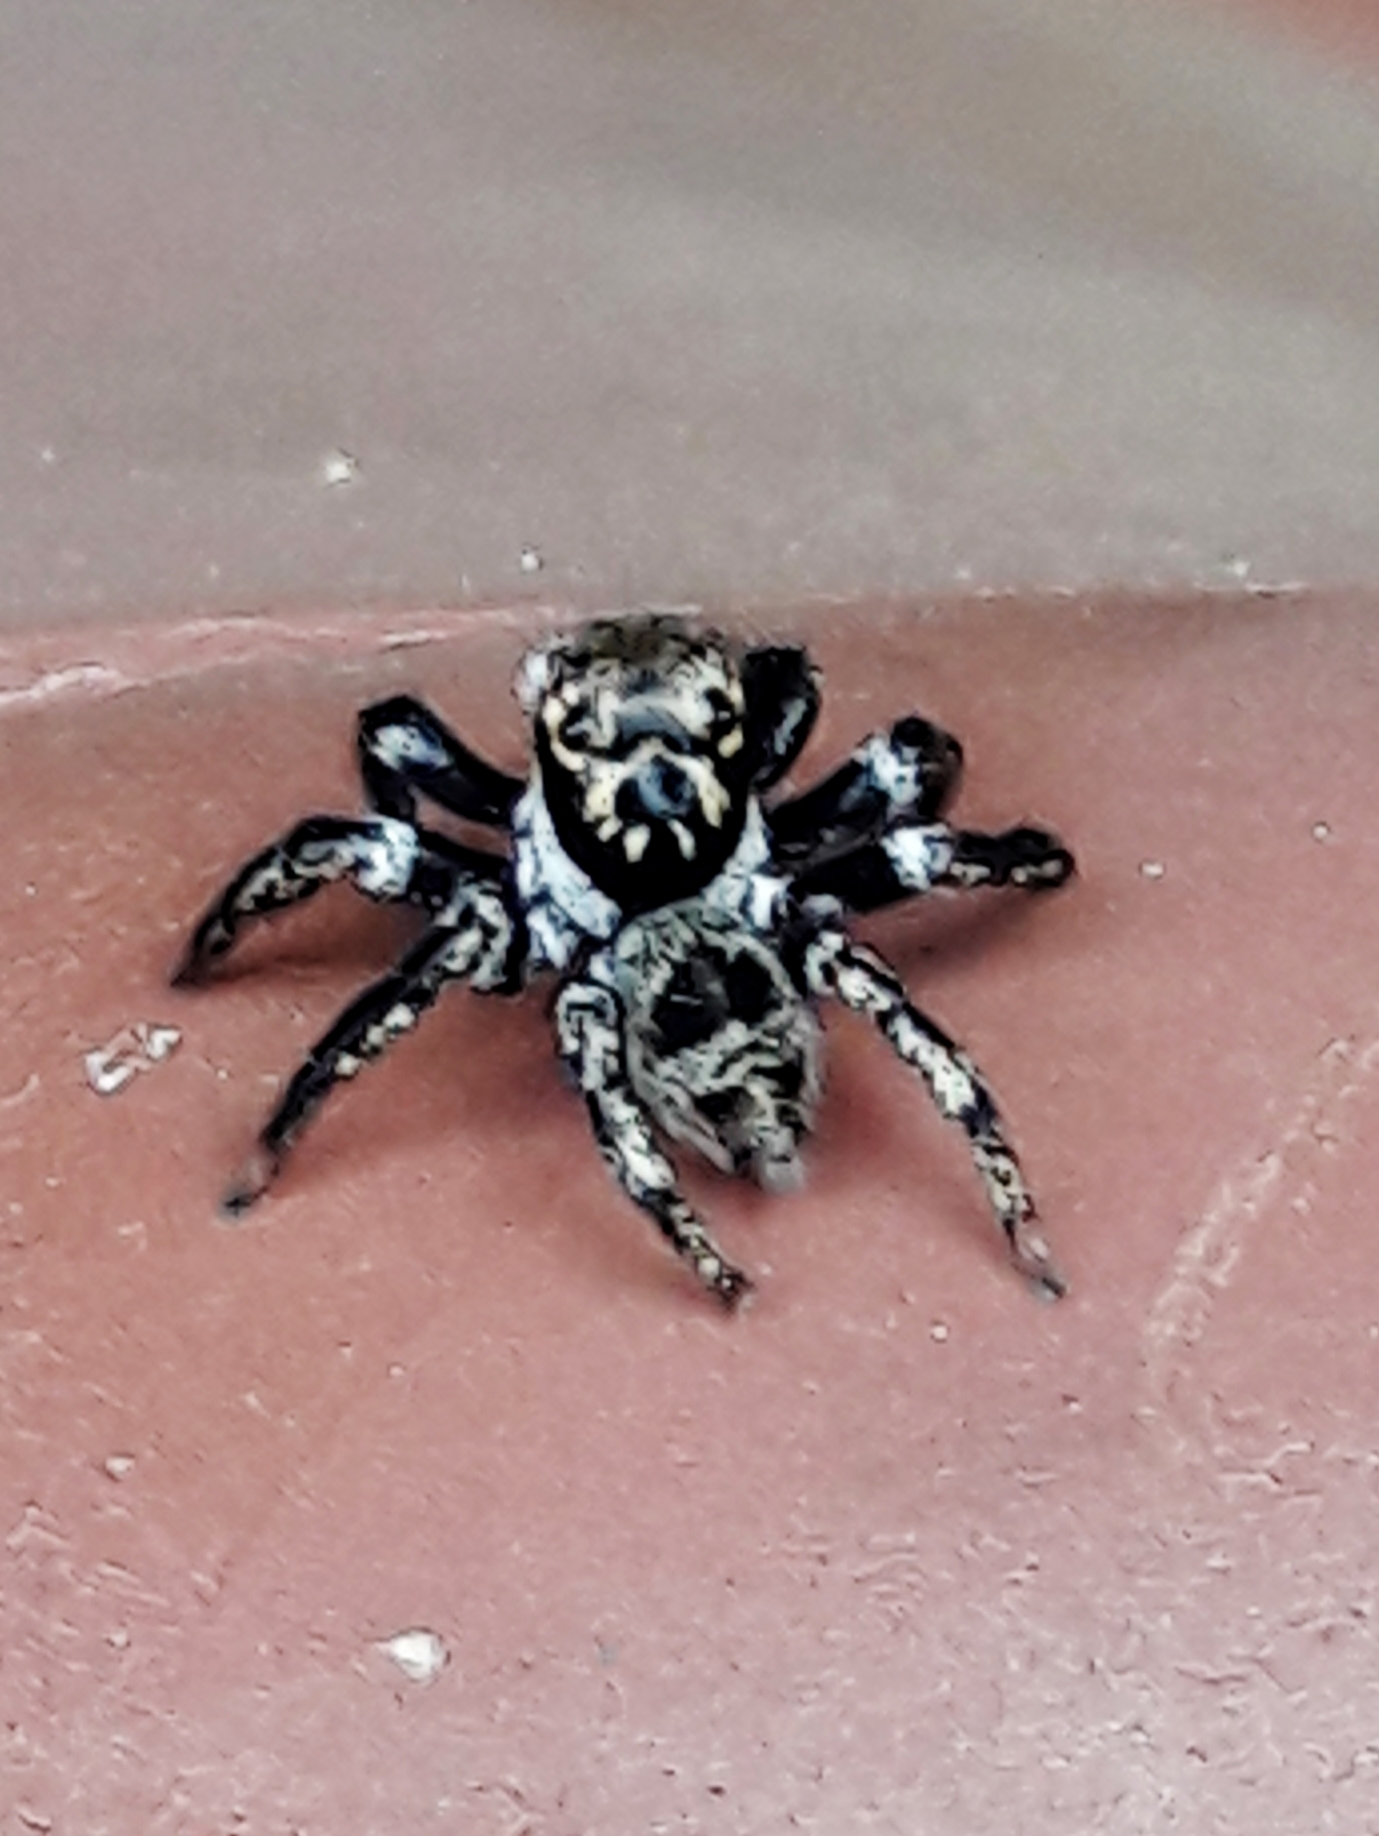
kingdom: Animalia
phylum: Arthropoda
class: Arachnida
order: Araneae
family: Salticidae
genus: Corythalia
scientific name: Corythalia conferta
